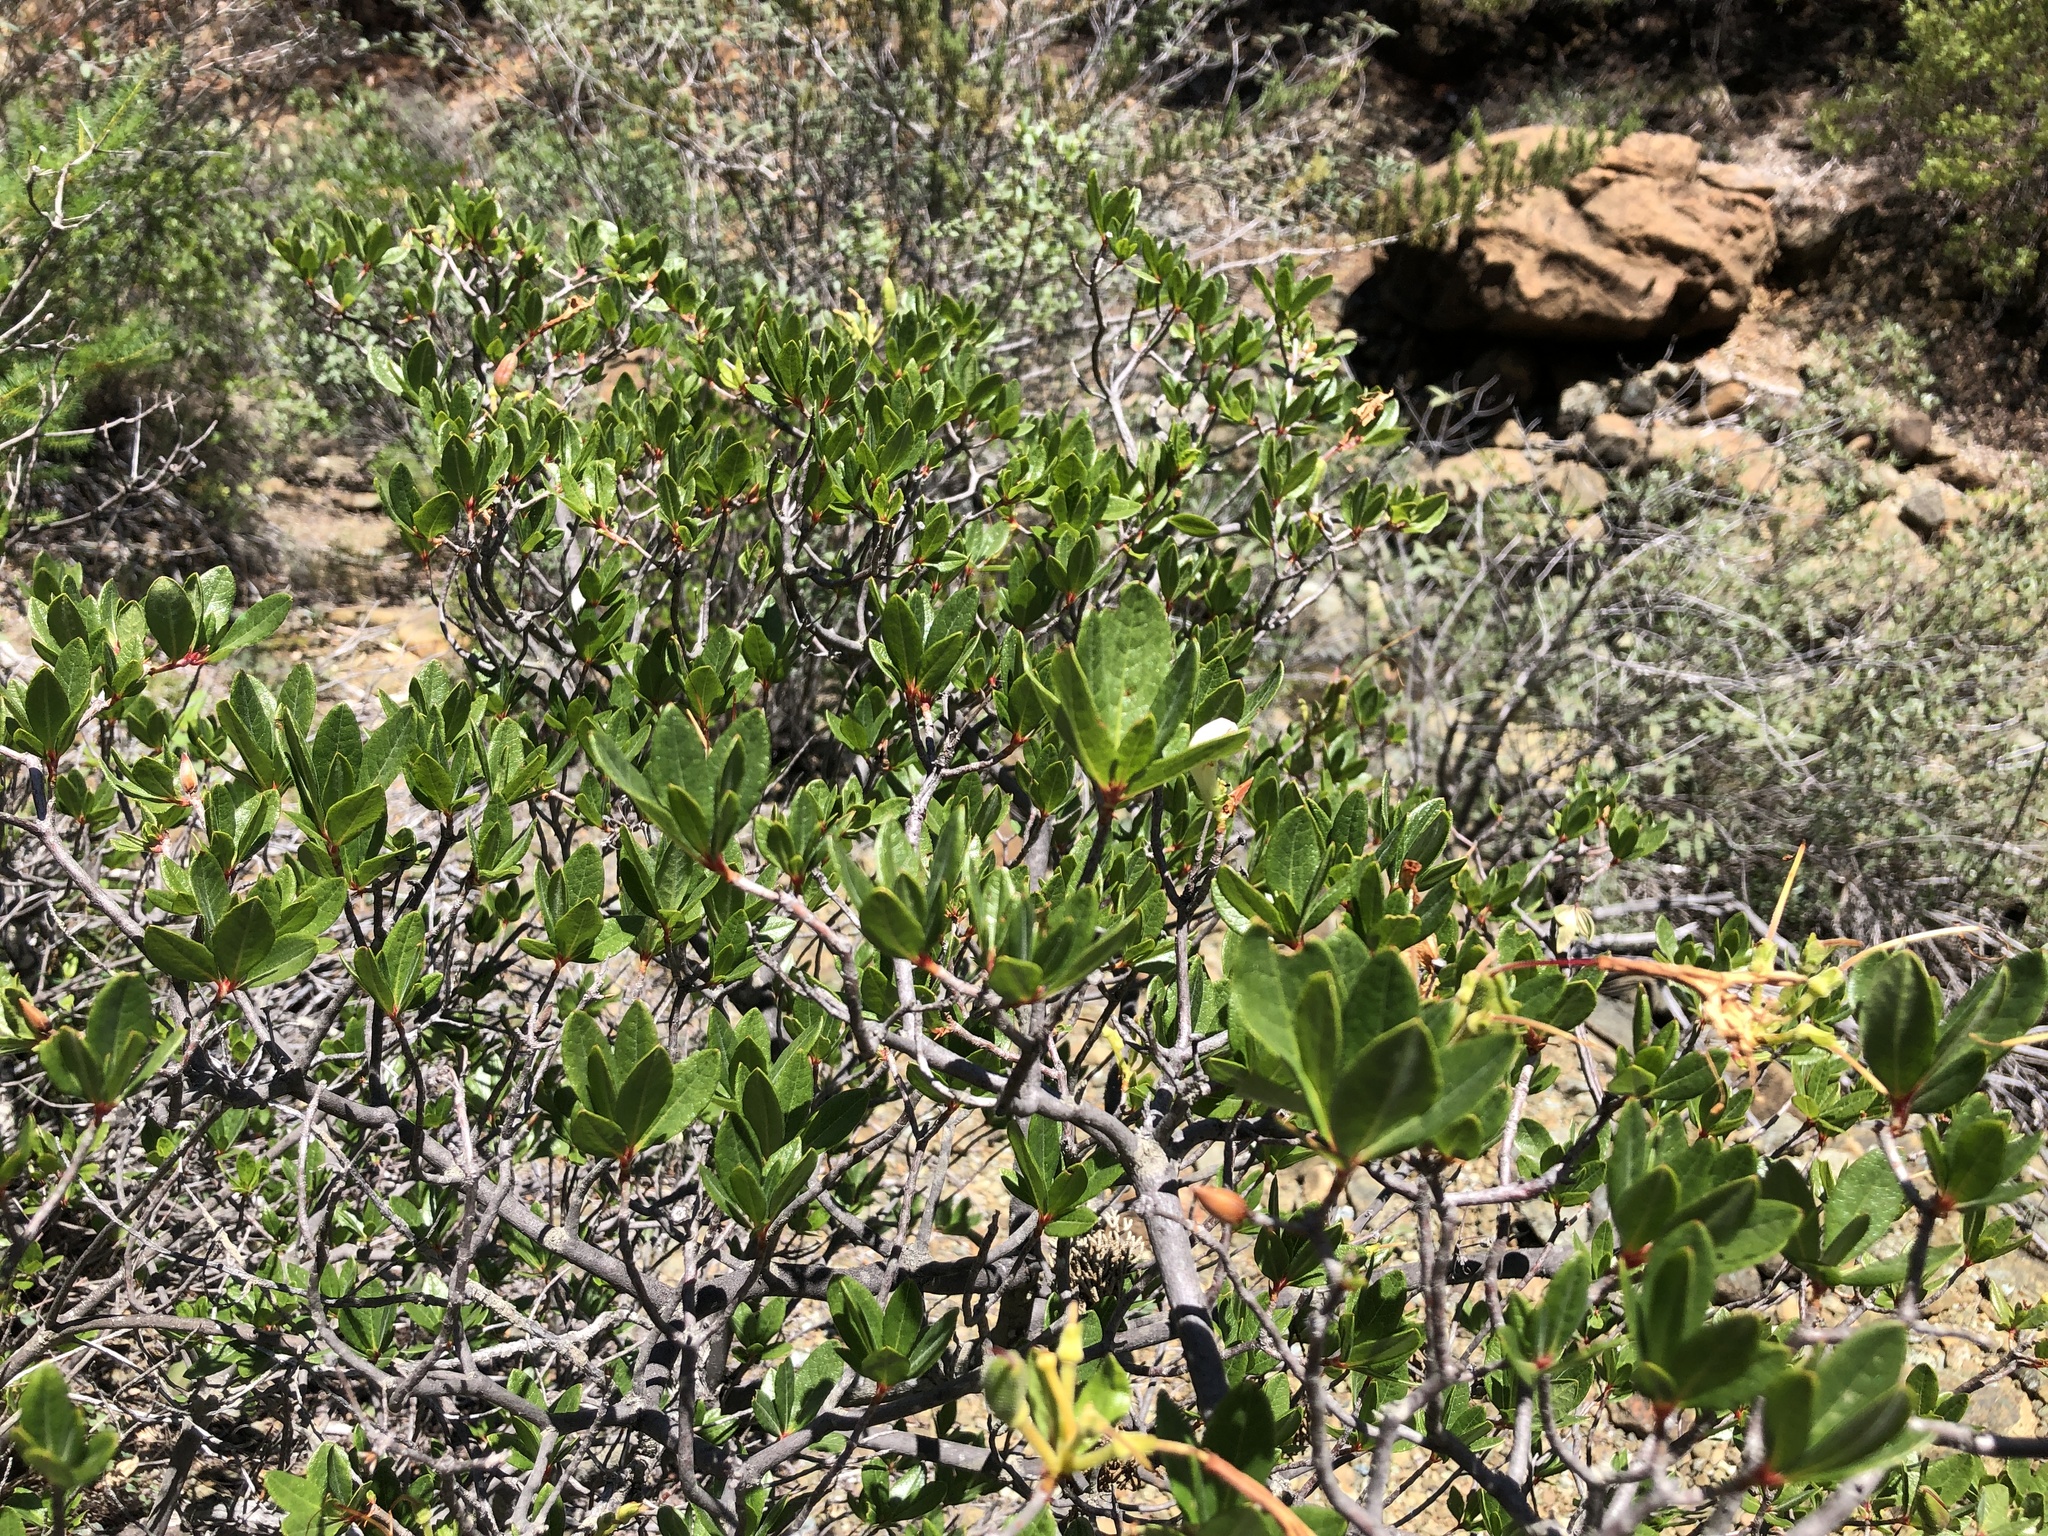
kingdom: Plantae
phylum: Tracheophyta
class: Magnoliopsida
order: Ericales
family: Ericaceae
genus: Rhododendron
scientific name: Rhododendron occidentale
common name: Western azalea
